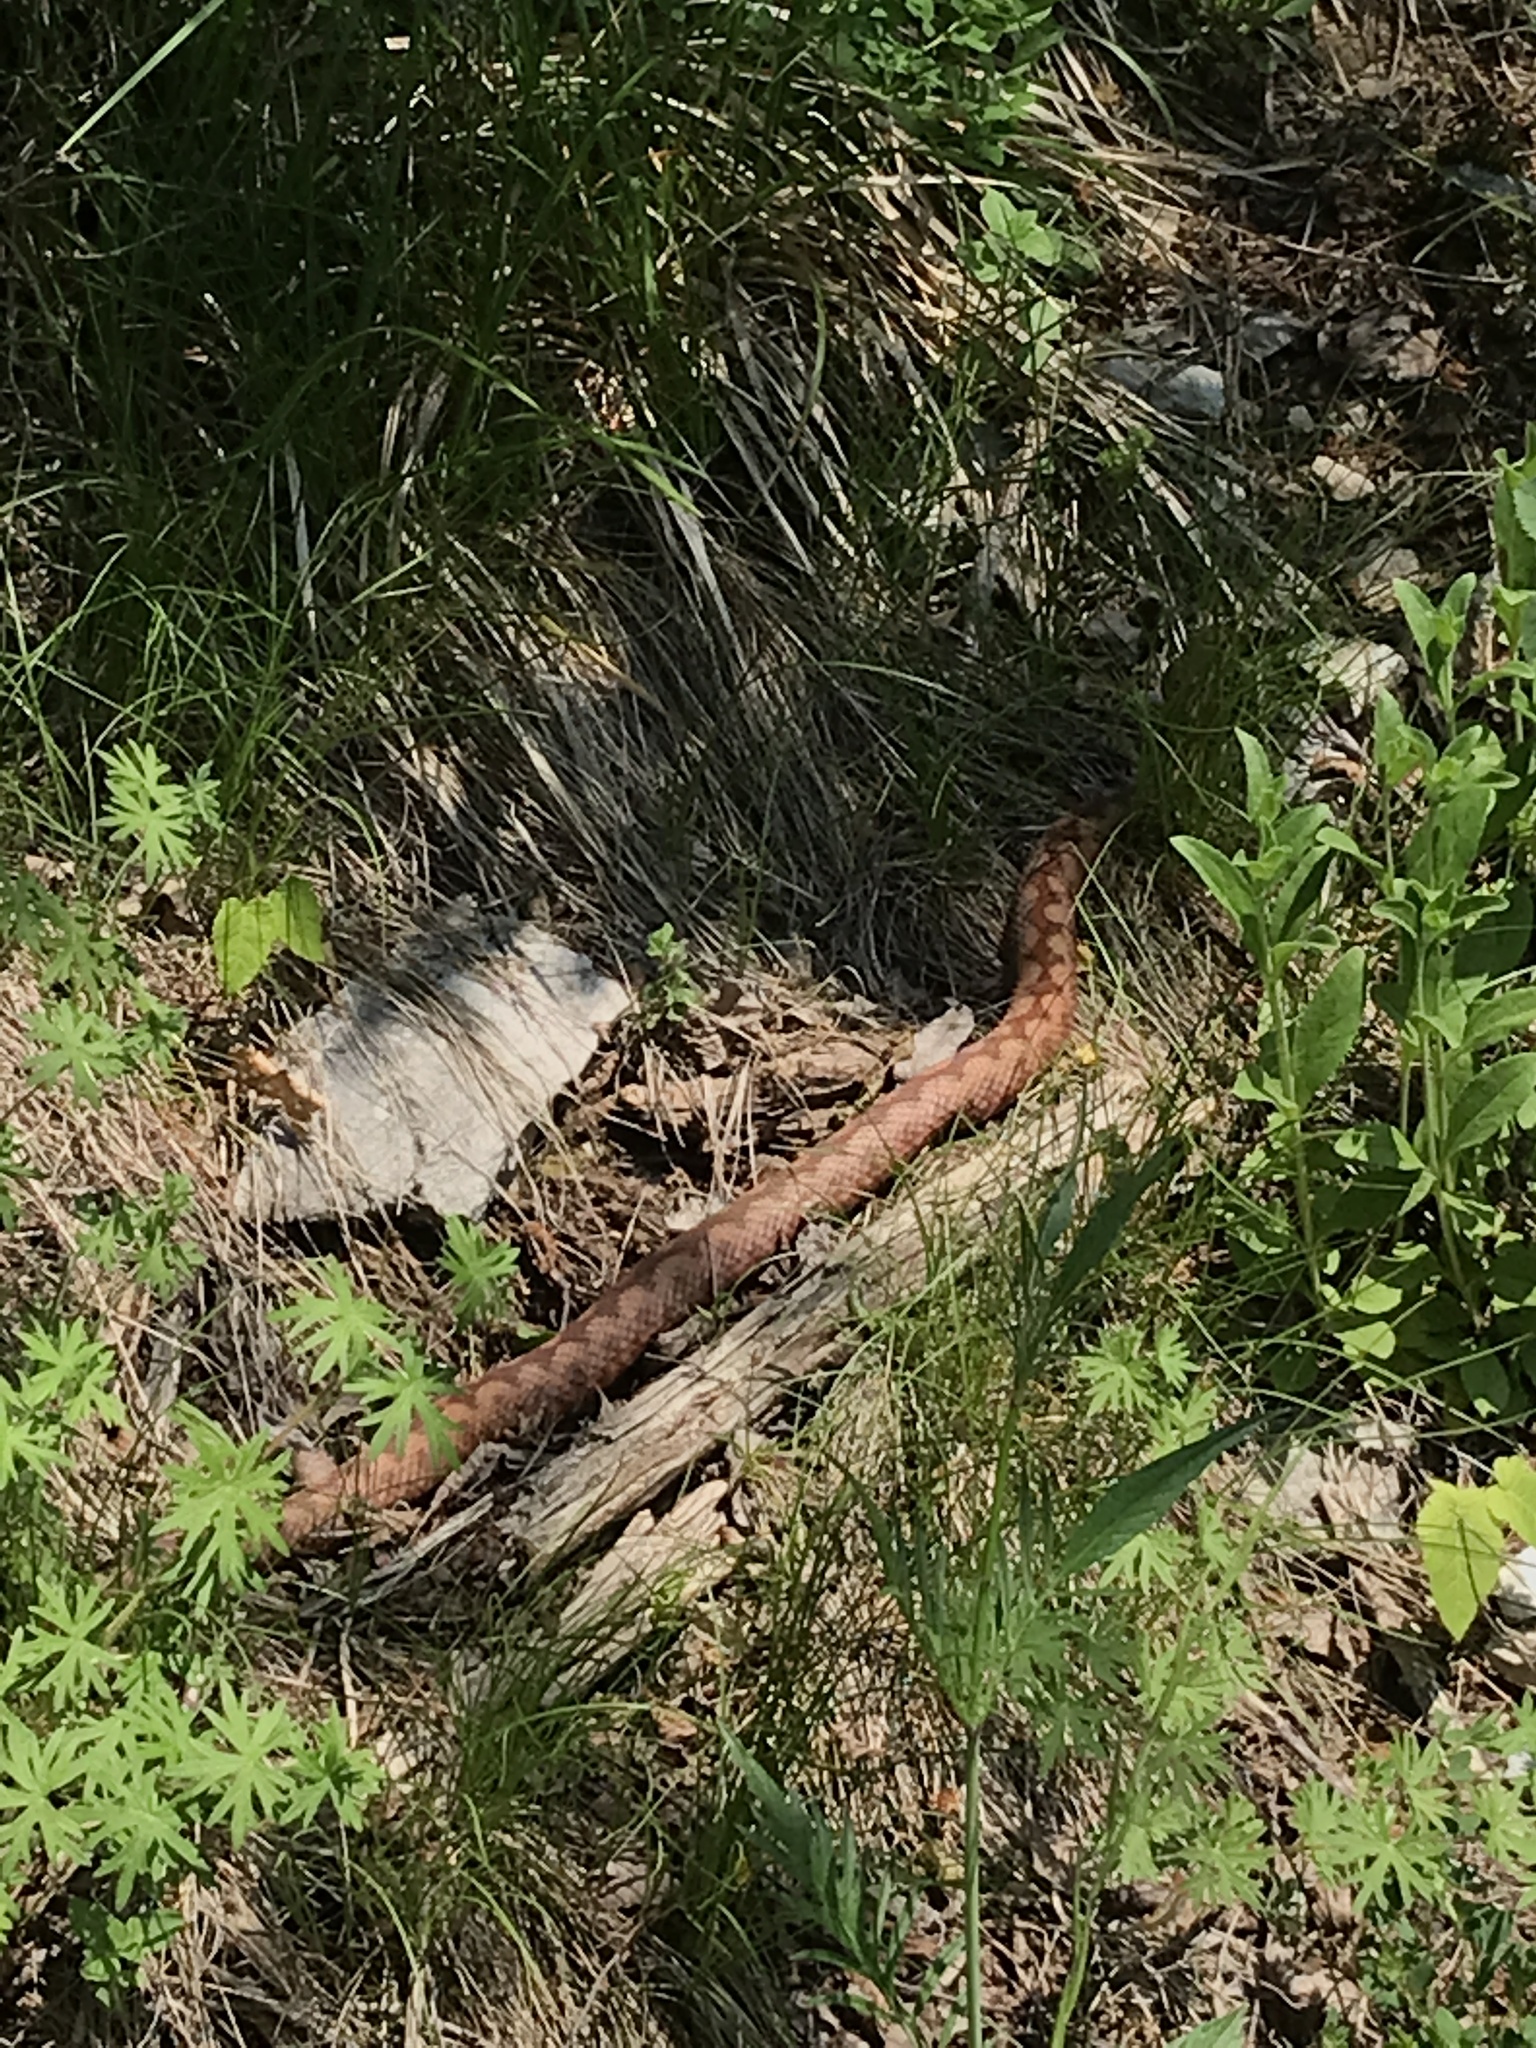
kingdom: Animalia
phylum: Chordata
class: Squamata
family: Viperidae
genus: Vipera
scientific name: Vipera ammodytes
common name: Sand viper
